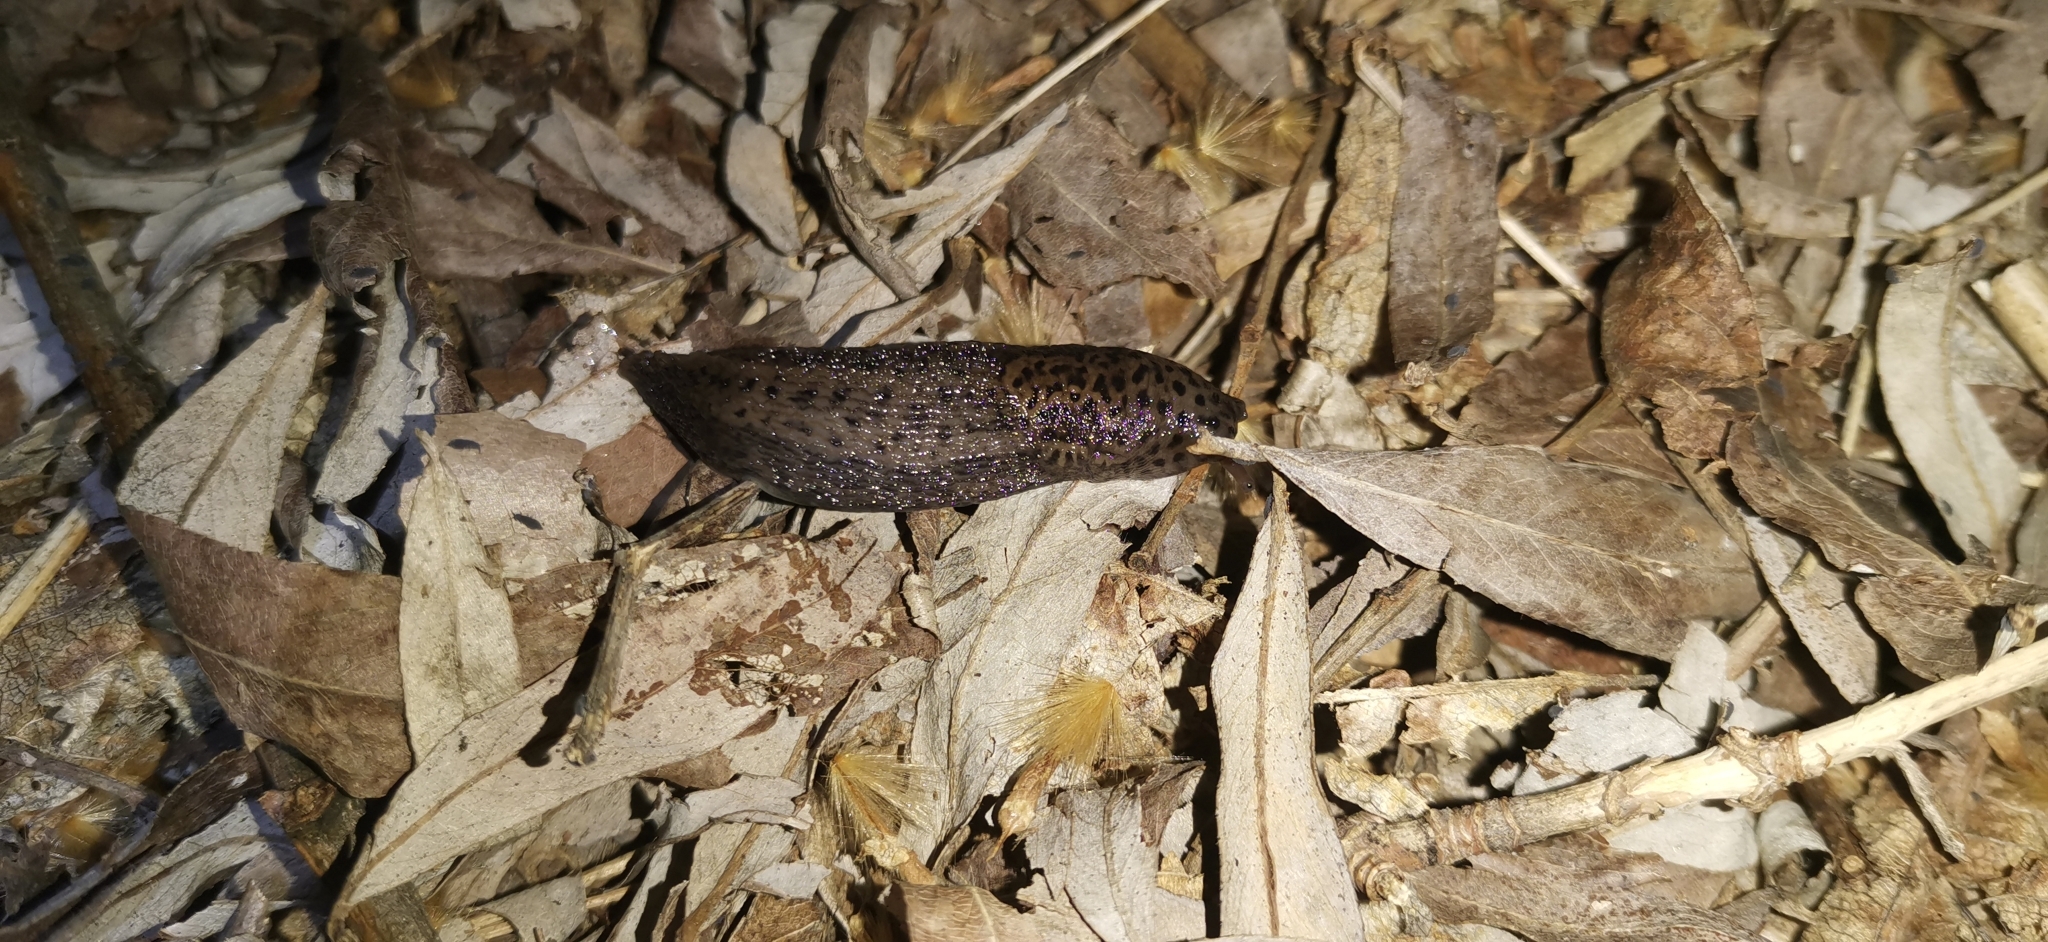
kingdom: Animalia
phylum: Mollusca
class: Gastropoda
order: Stylommatophora
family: Limacidae
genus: Limax
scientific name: Limax maximus
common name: Great grey slug
